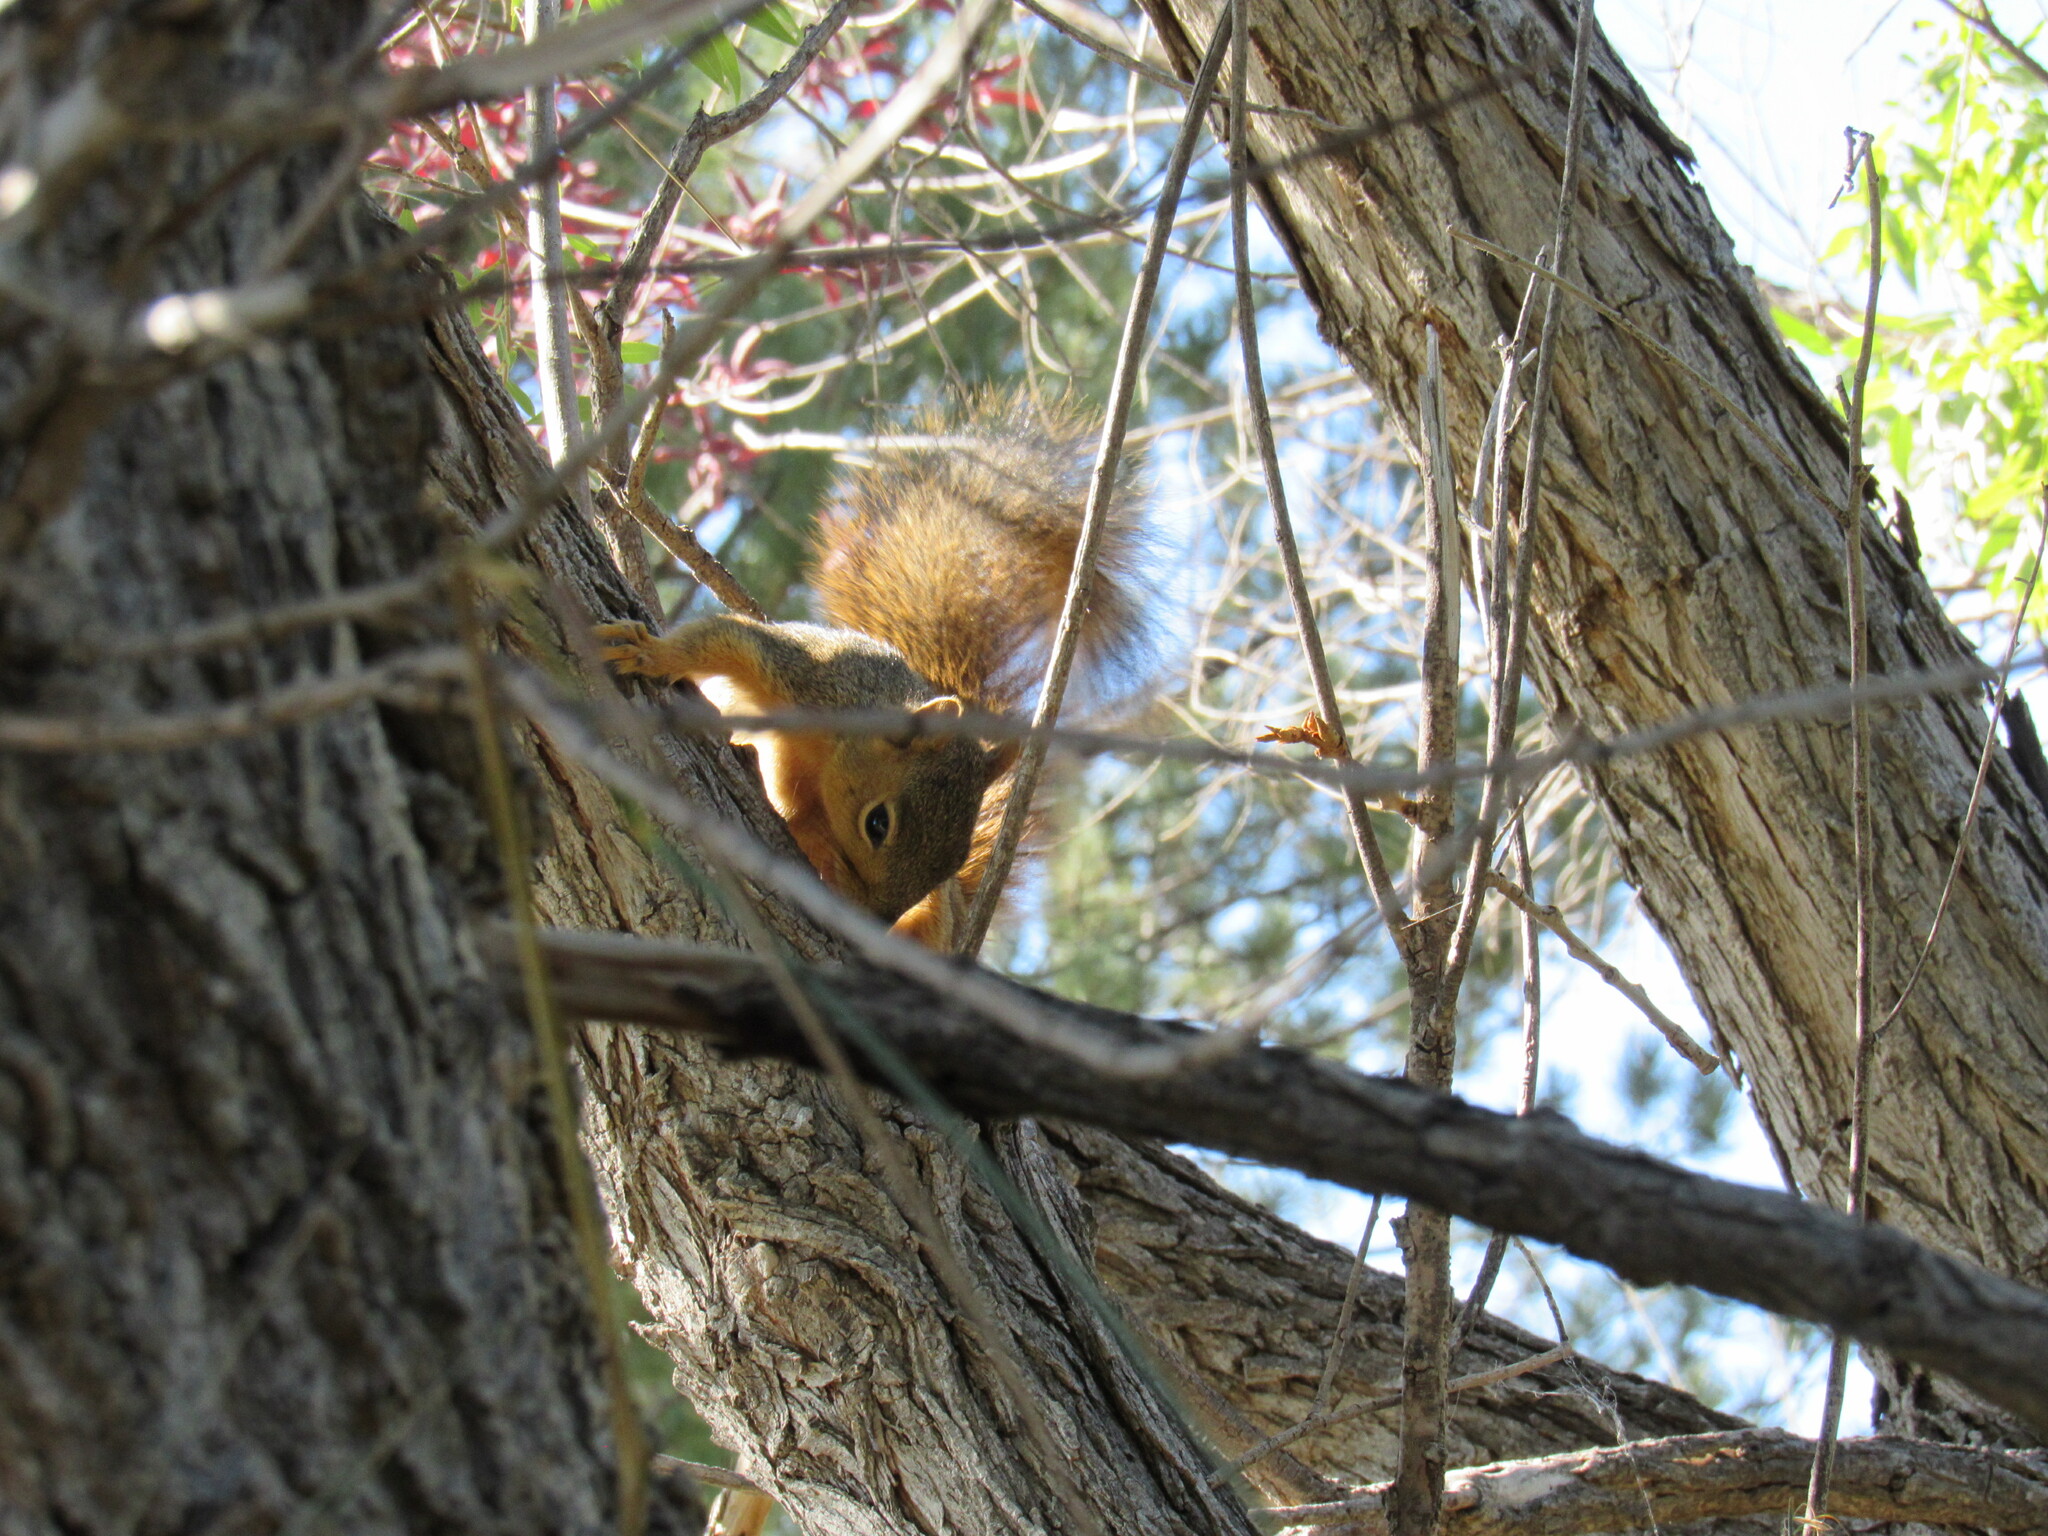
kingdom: Animalia
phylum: Chordata
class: Mammalia
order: Rodentia
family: Sciuridae
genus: Sciurus
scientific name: Sciurus niger
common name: Fox squirrel
